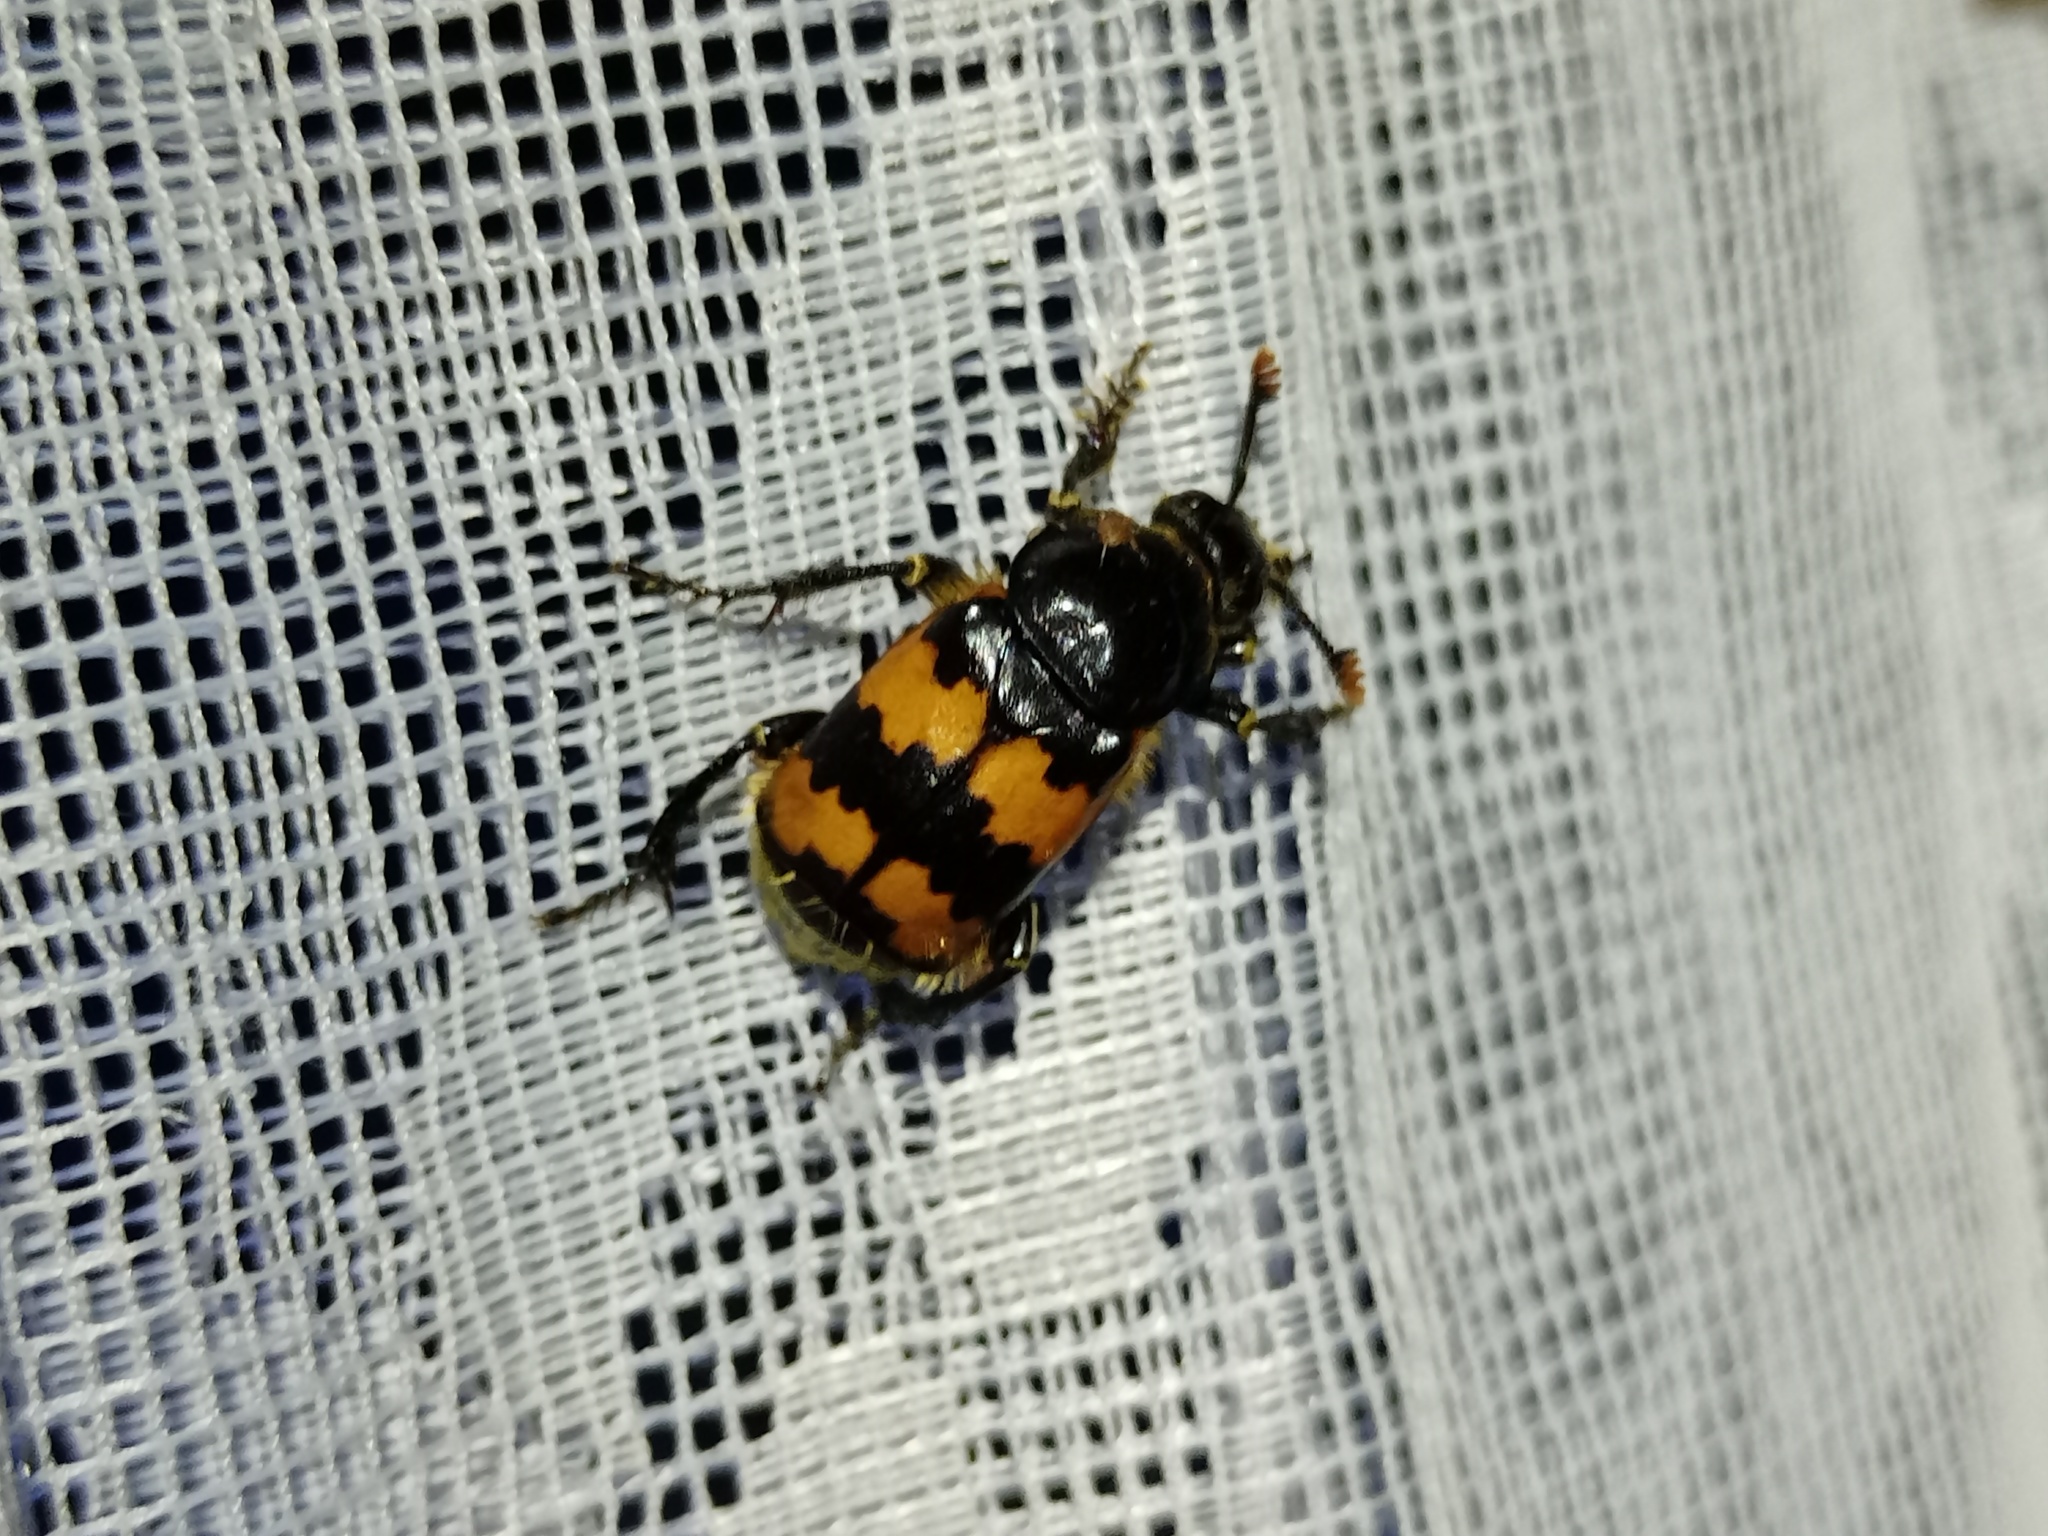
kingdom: Animalia
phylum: Arthropoda
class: Insecta
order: Coleoptera
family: Staphylinidae
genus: Nicrophorus
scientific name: Nicrophorus vespillo
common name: Common burying beetle
